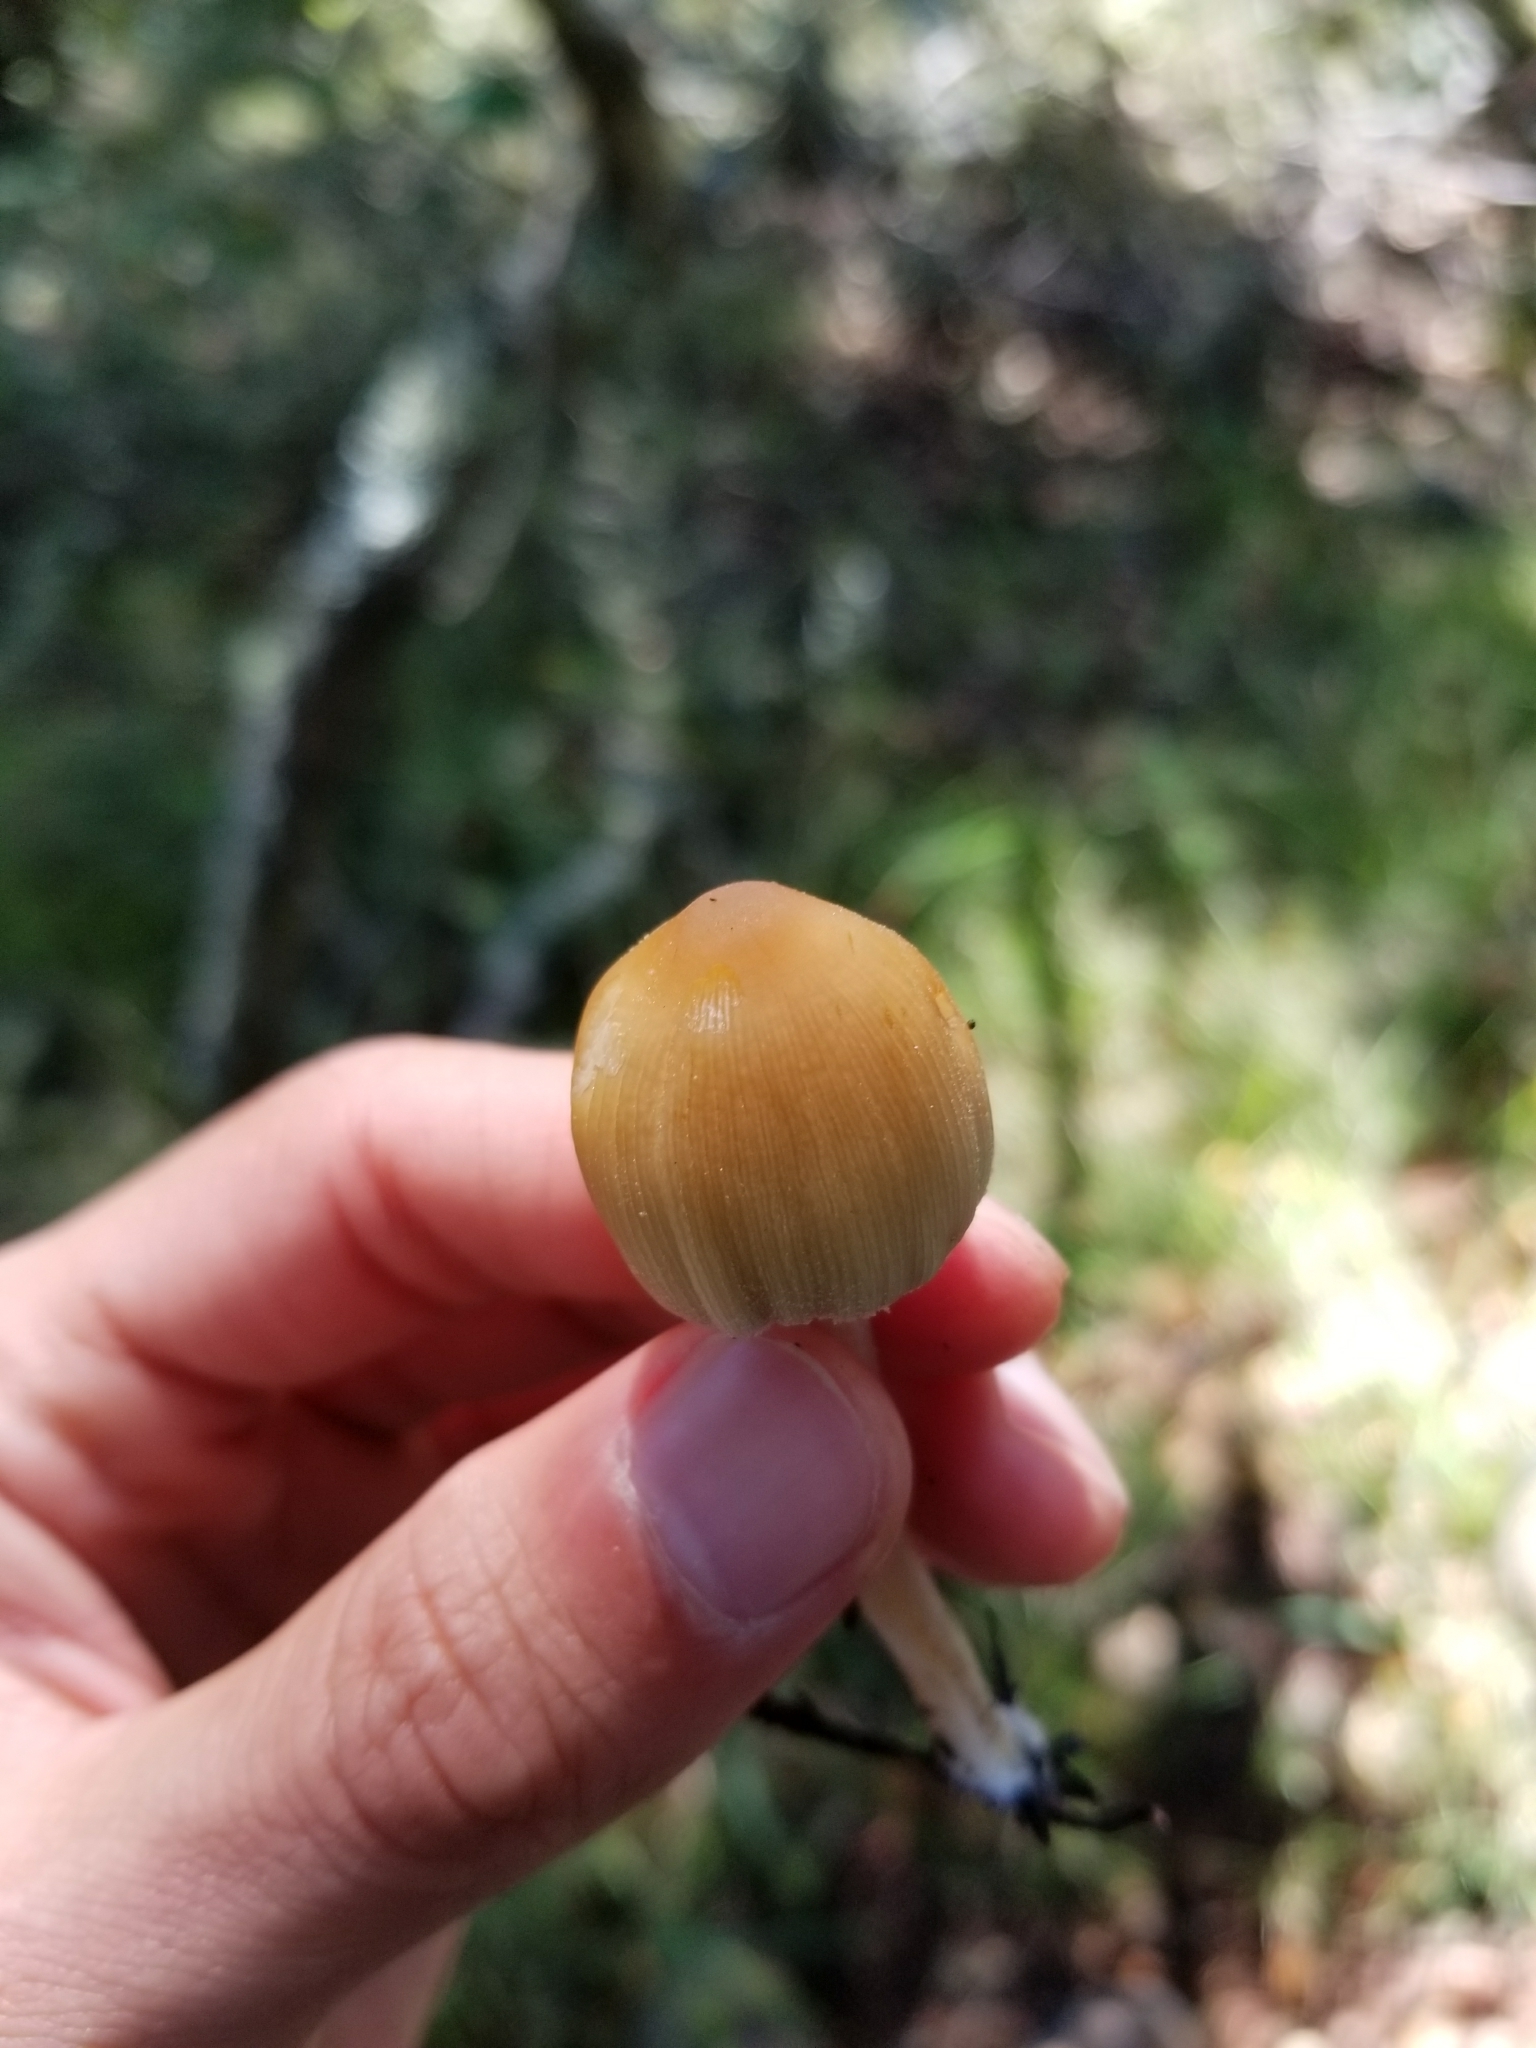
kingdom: Fungi
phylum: Basidiomycota
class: Agaricomycetes
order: Agaricales
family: Psathyrellaceae
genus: Coprinellus
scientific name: Coprinellus micaceus
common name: Glistening ink-cap
